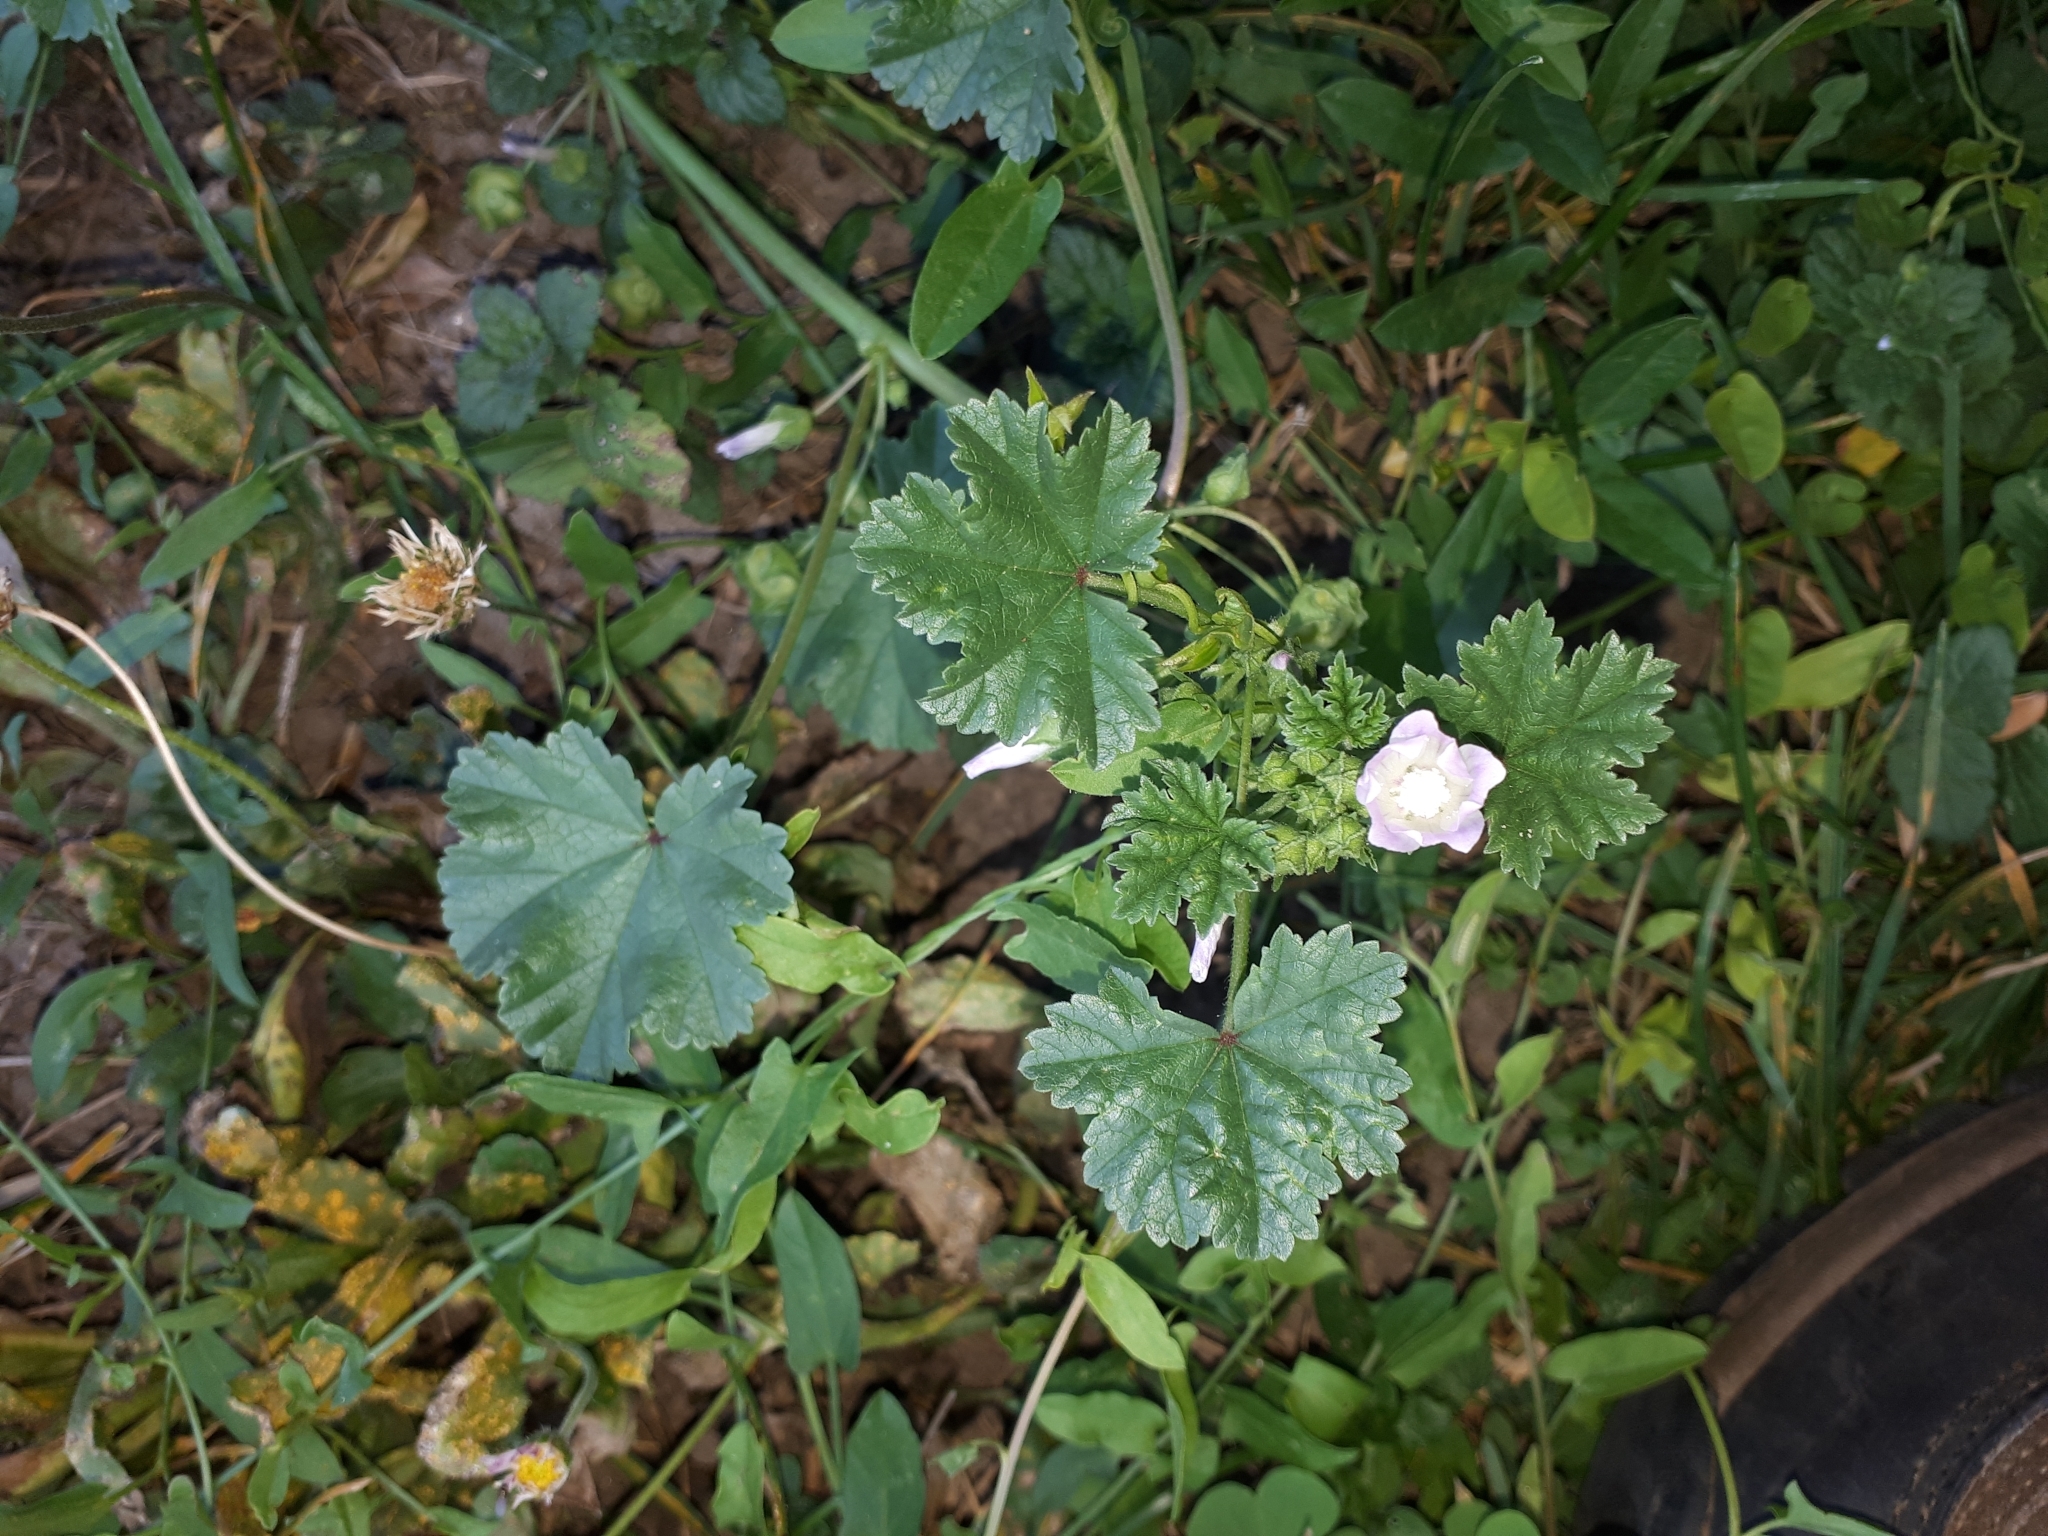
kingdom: Plantae
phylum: Tracheophyta
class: Magnoliopsida
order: Malvales
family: Malvaceae
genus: Malva
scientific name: Malva neglecta
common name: Common mallow
